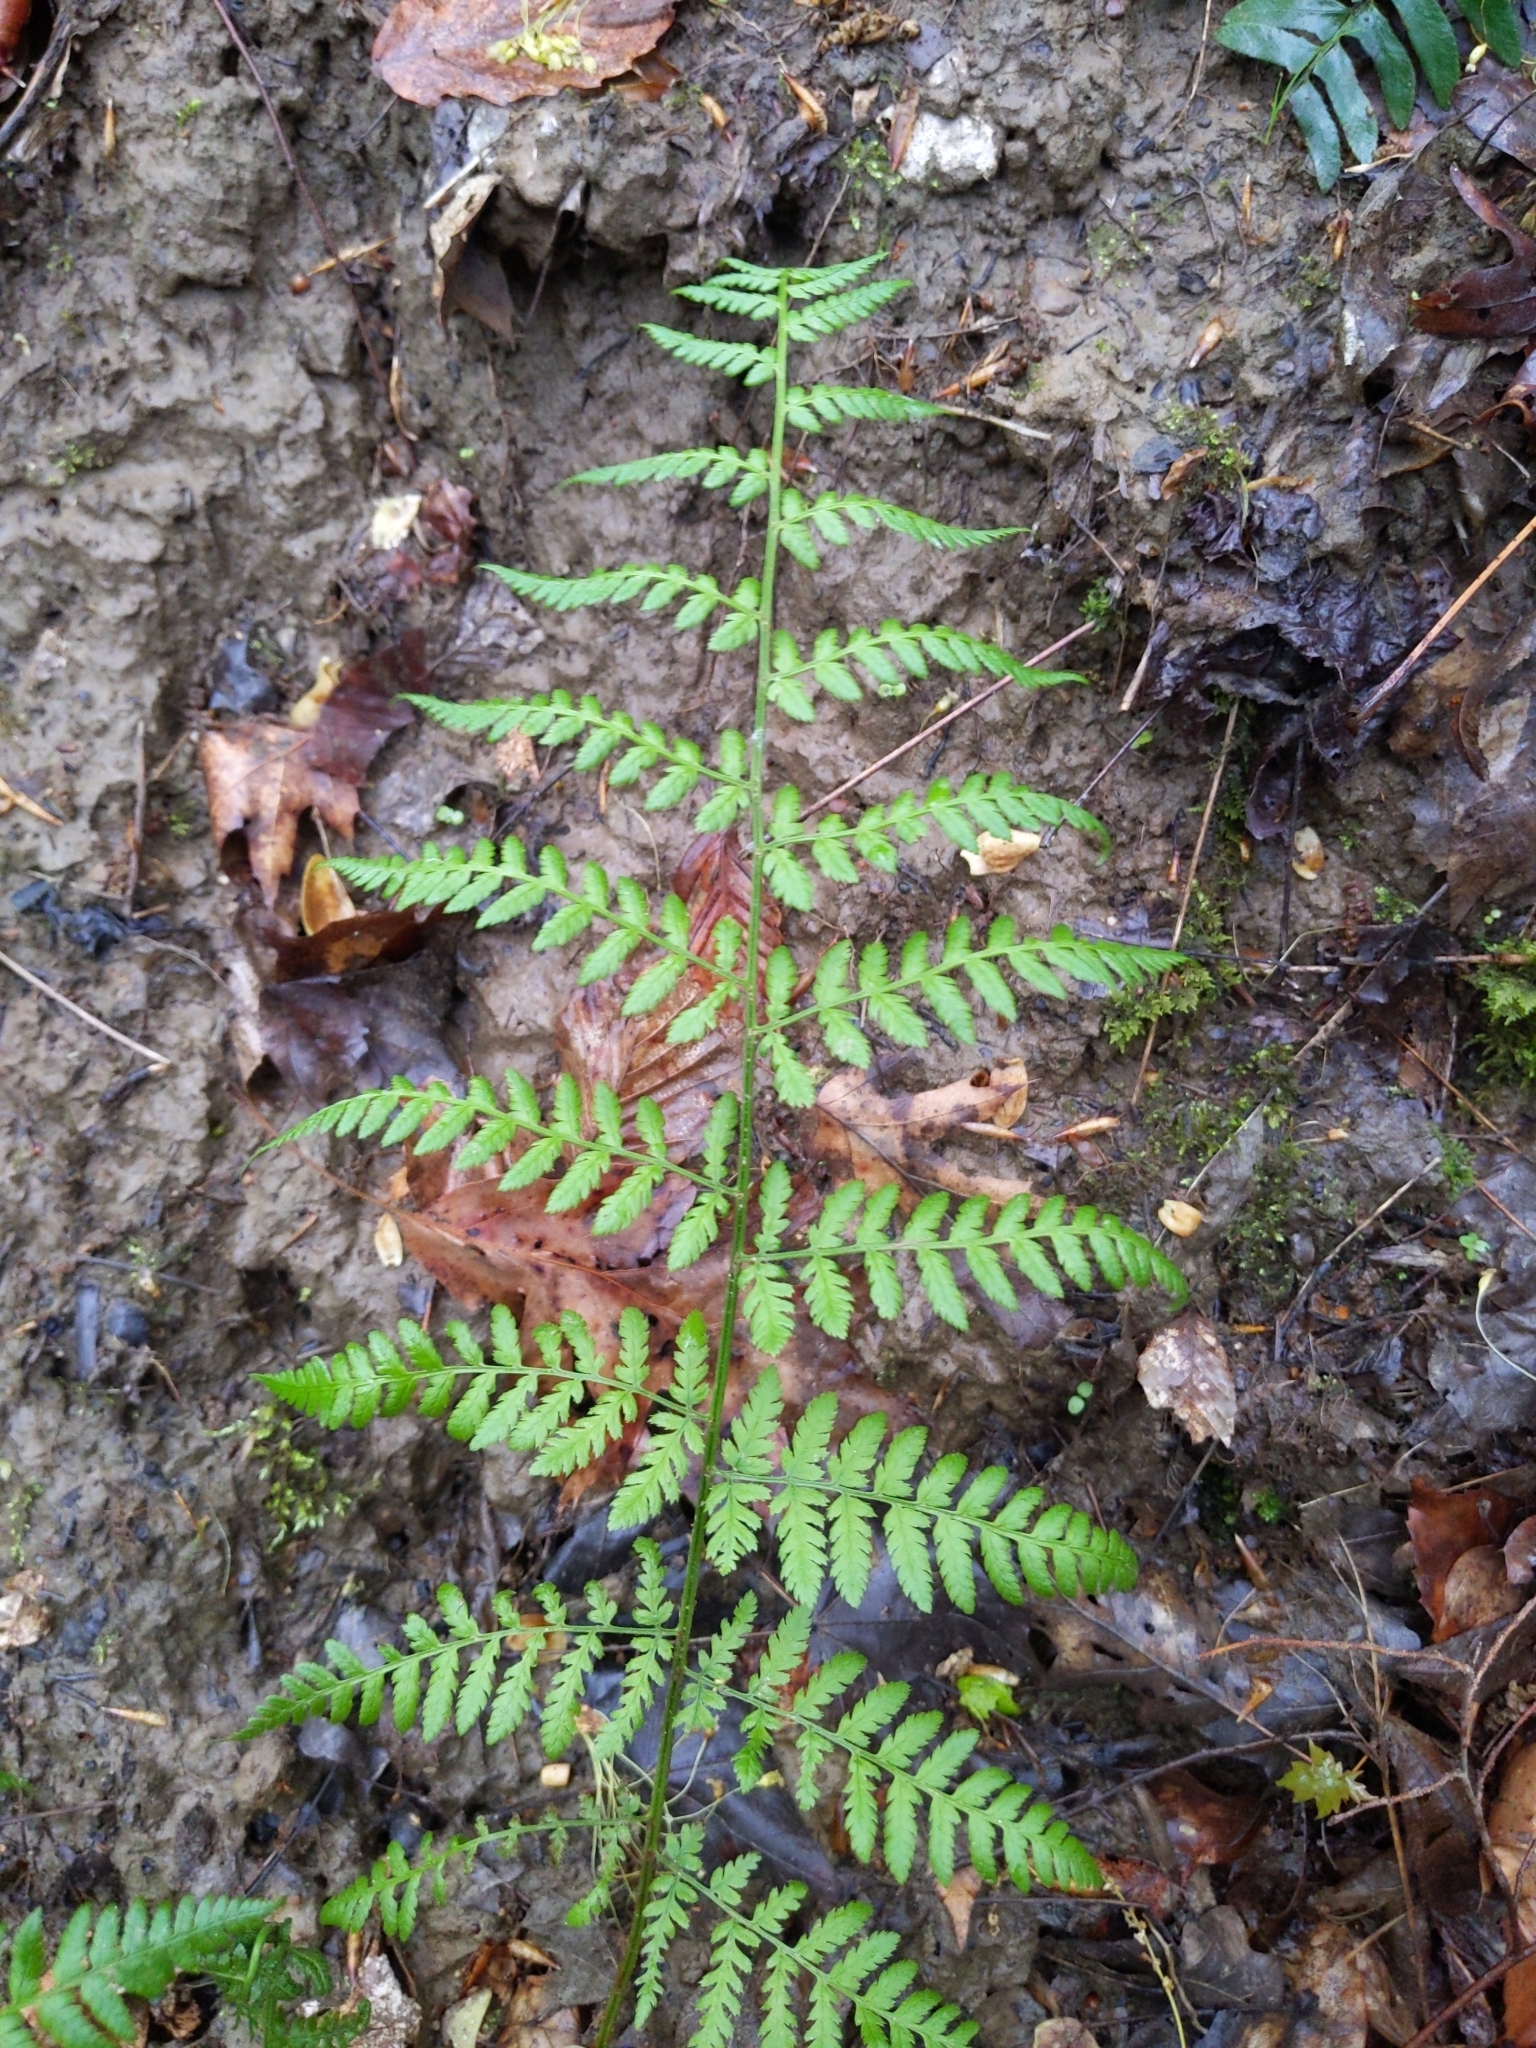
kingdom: Plantae
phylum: Tracheophyta
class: Polypodiopsida
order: Polypodiales
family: Dryopteridaceae
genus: Dryopteris
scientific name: Dryopteris intermedia
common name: Evergreen wood fern
